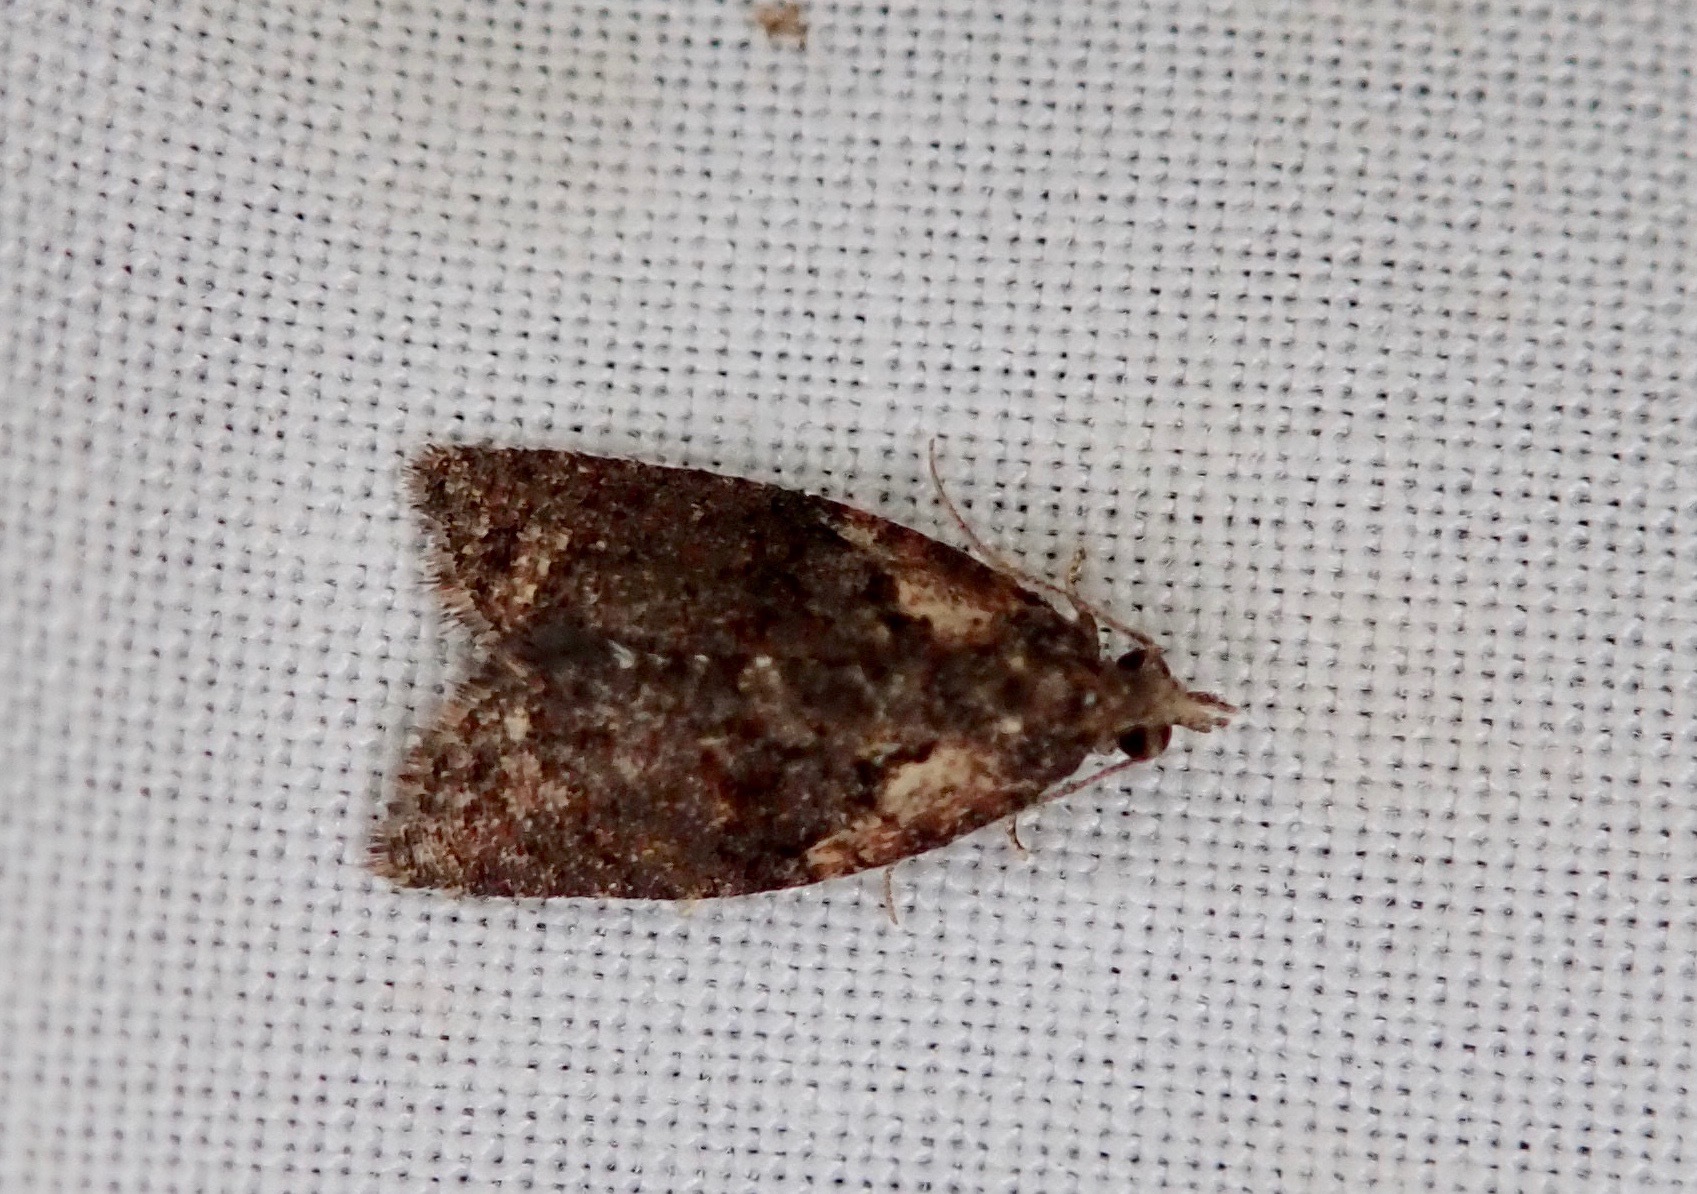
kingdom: Animalia
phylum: Arthropoda
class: Insecta
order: Lepidoptera
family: Tortricidae
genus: Capua
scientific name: Capua intractana
